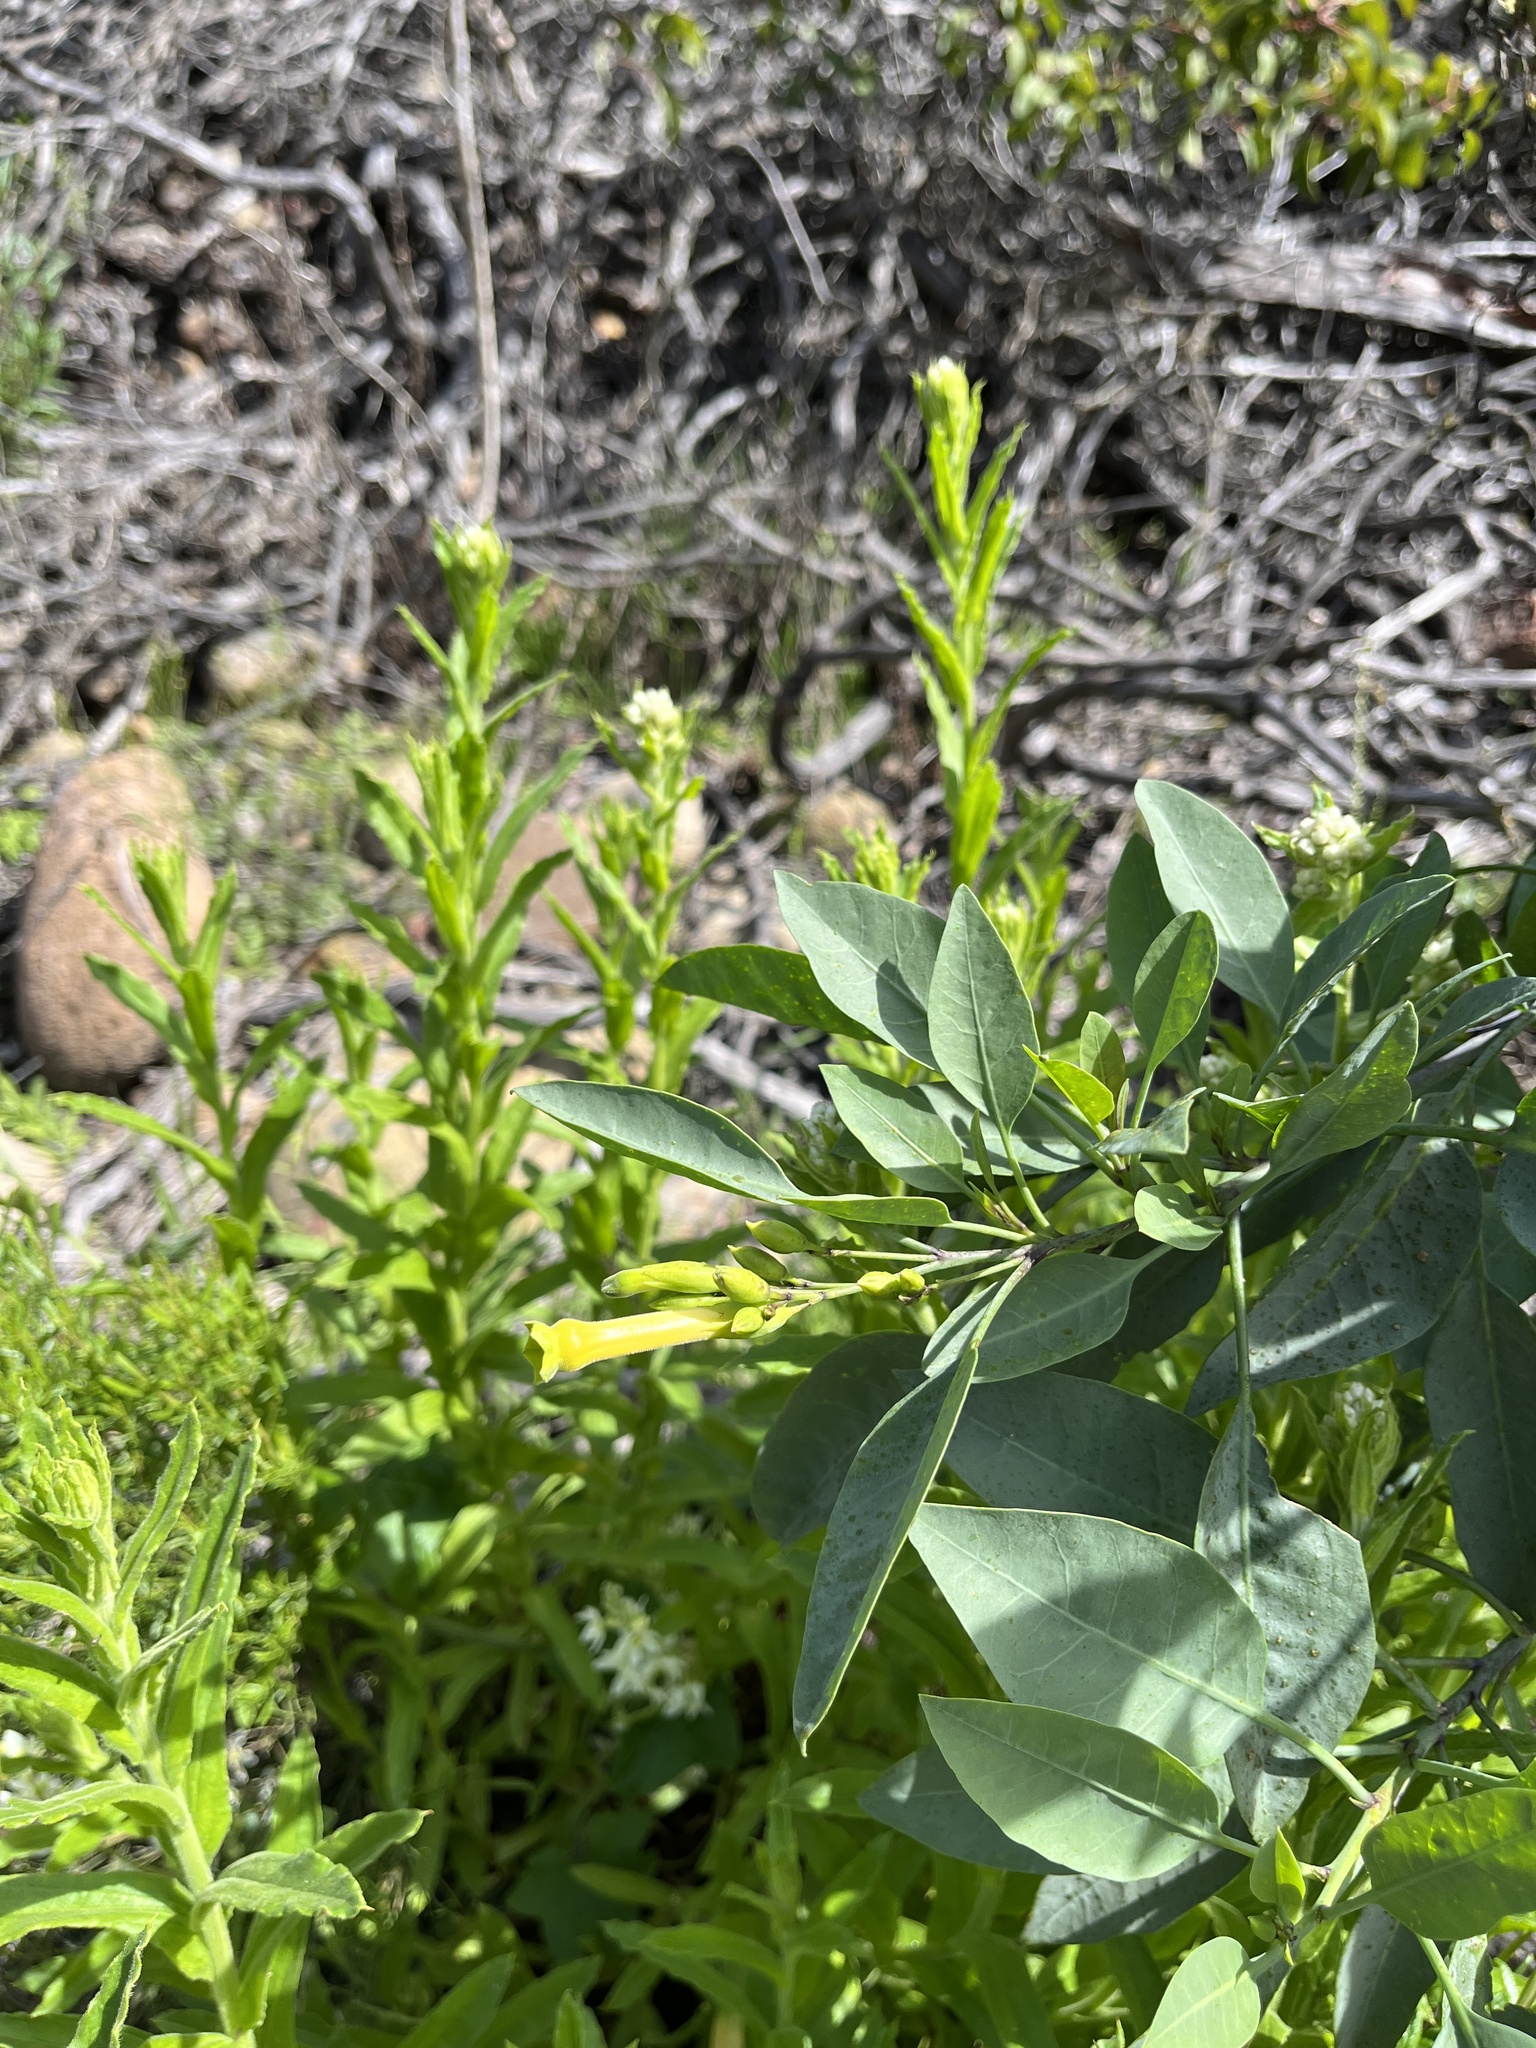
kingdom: Plantae
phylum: Tracheophyta
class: Magnoliopsida
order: Solanales
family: Solanaceae
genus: Nicotiana
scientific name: Nicotiana glauca
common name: Tree tobacco
